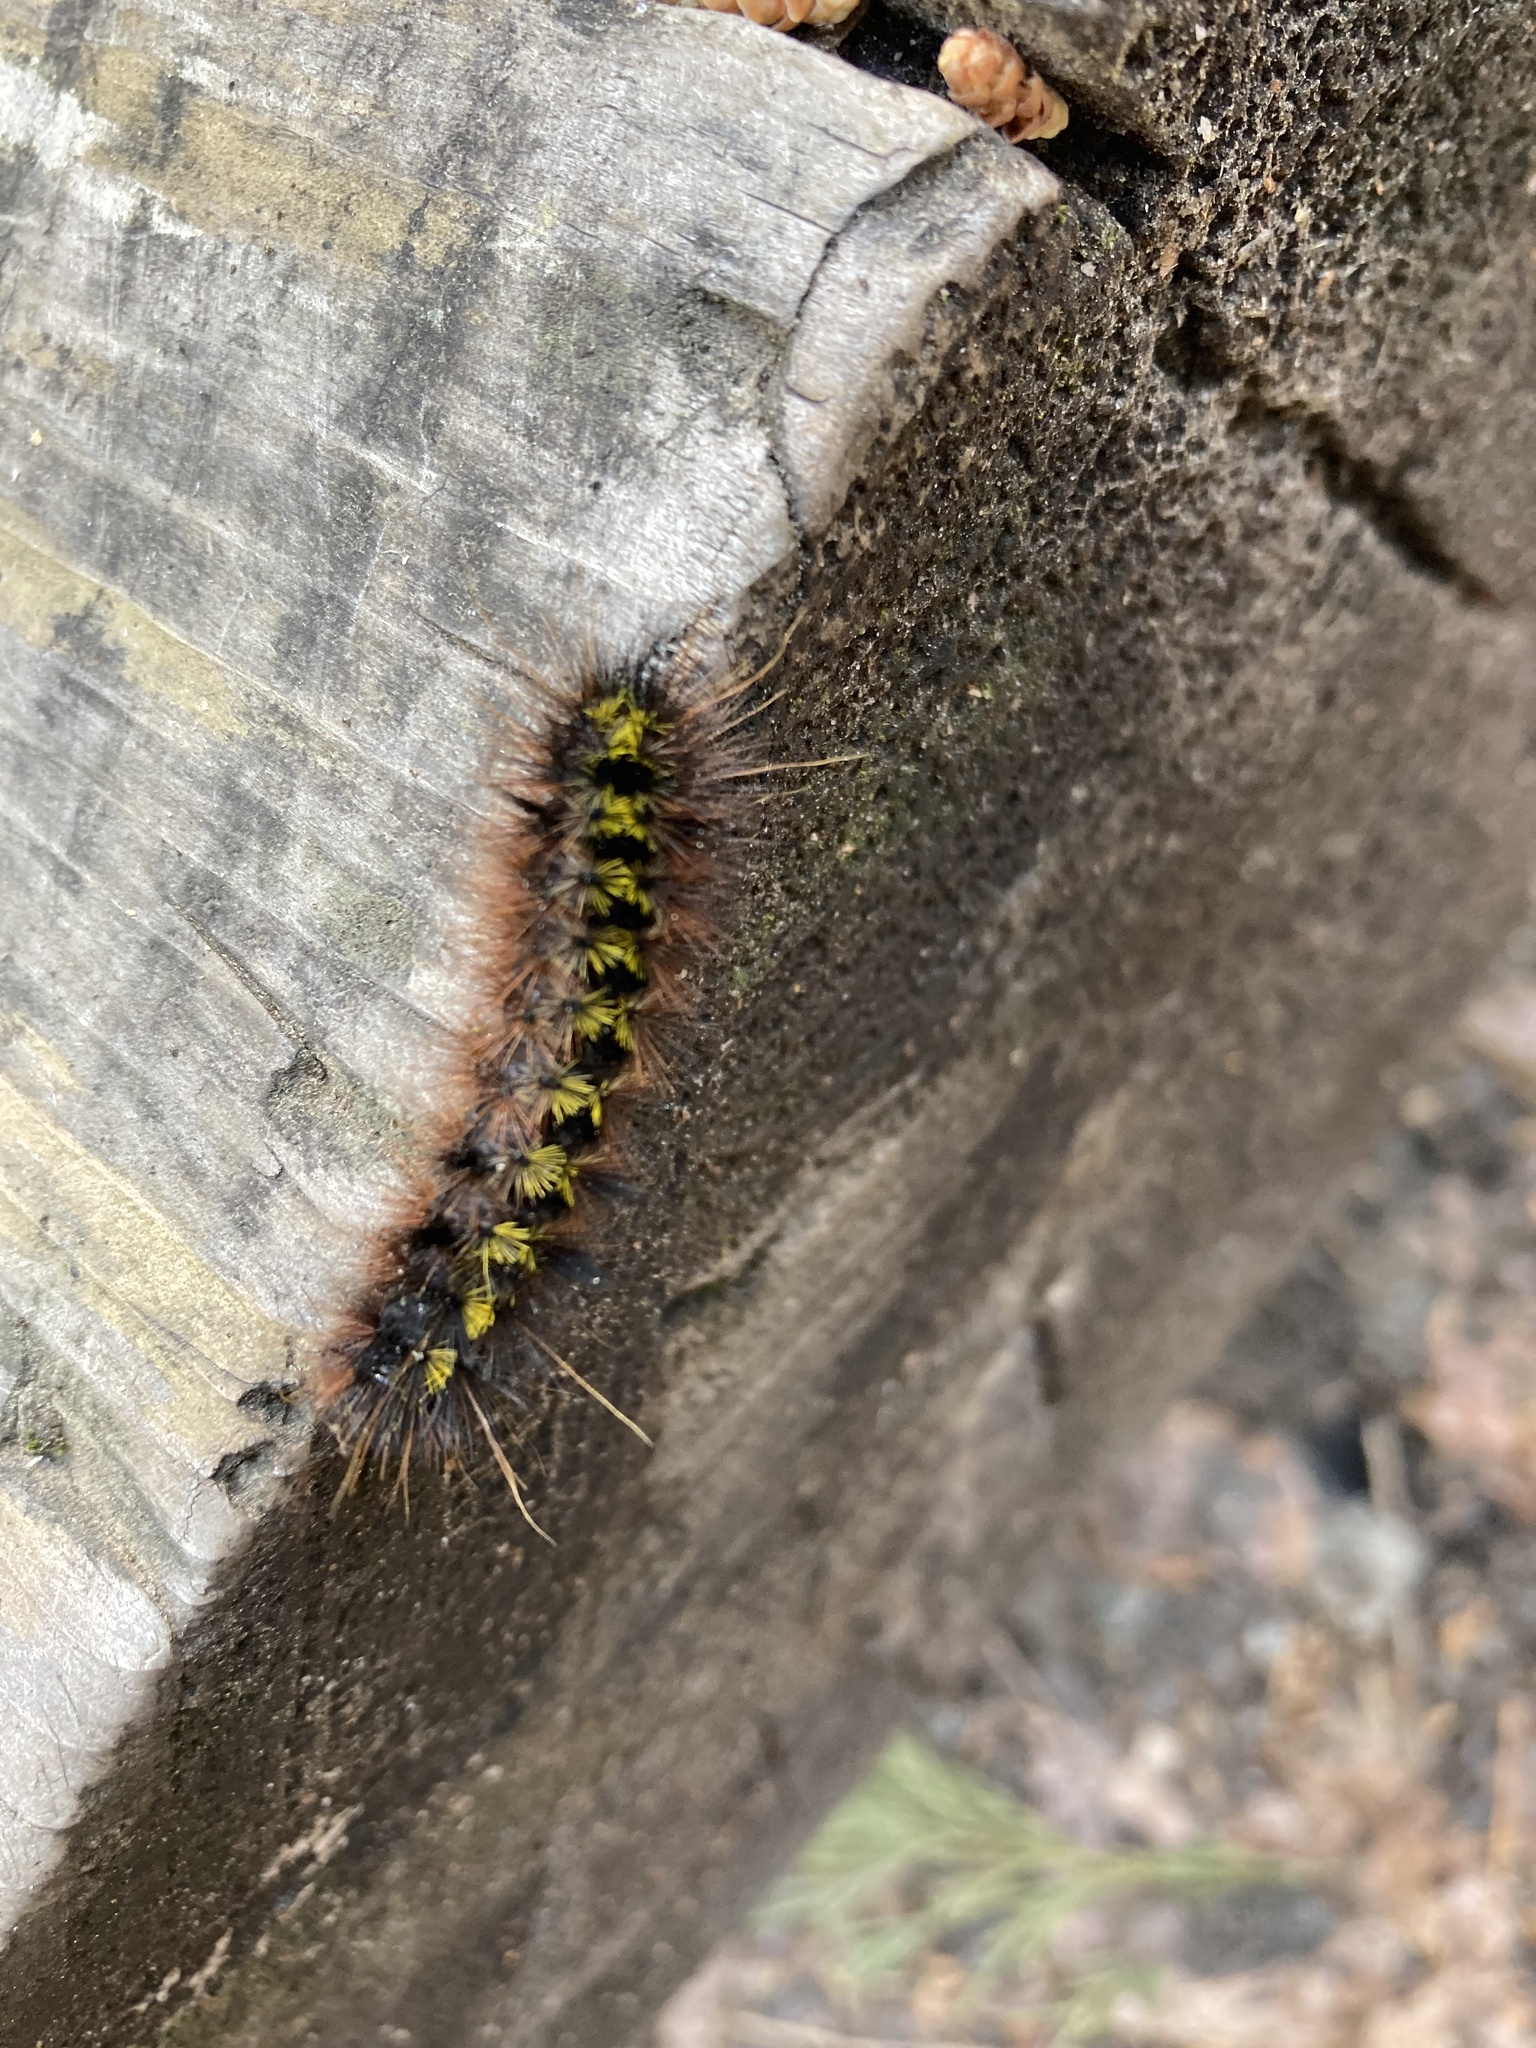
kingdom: Animalia
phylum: Arthropoda
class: Insecta
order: Lepidoptera
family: Erebidae
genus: Lophocampa
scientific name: Lophocampa argentata
